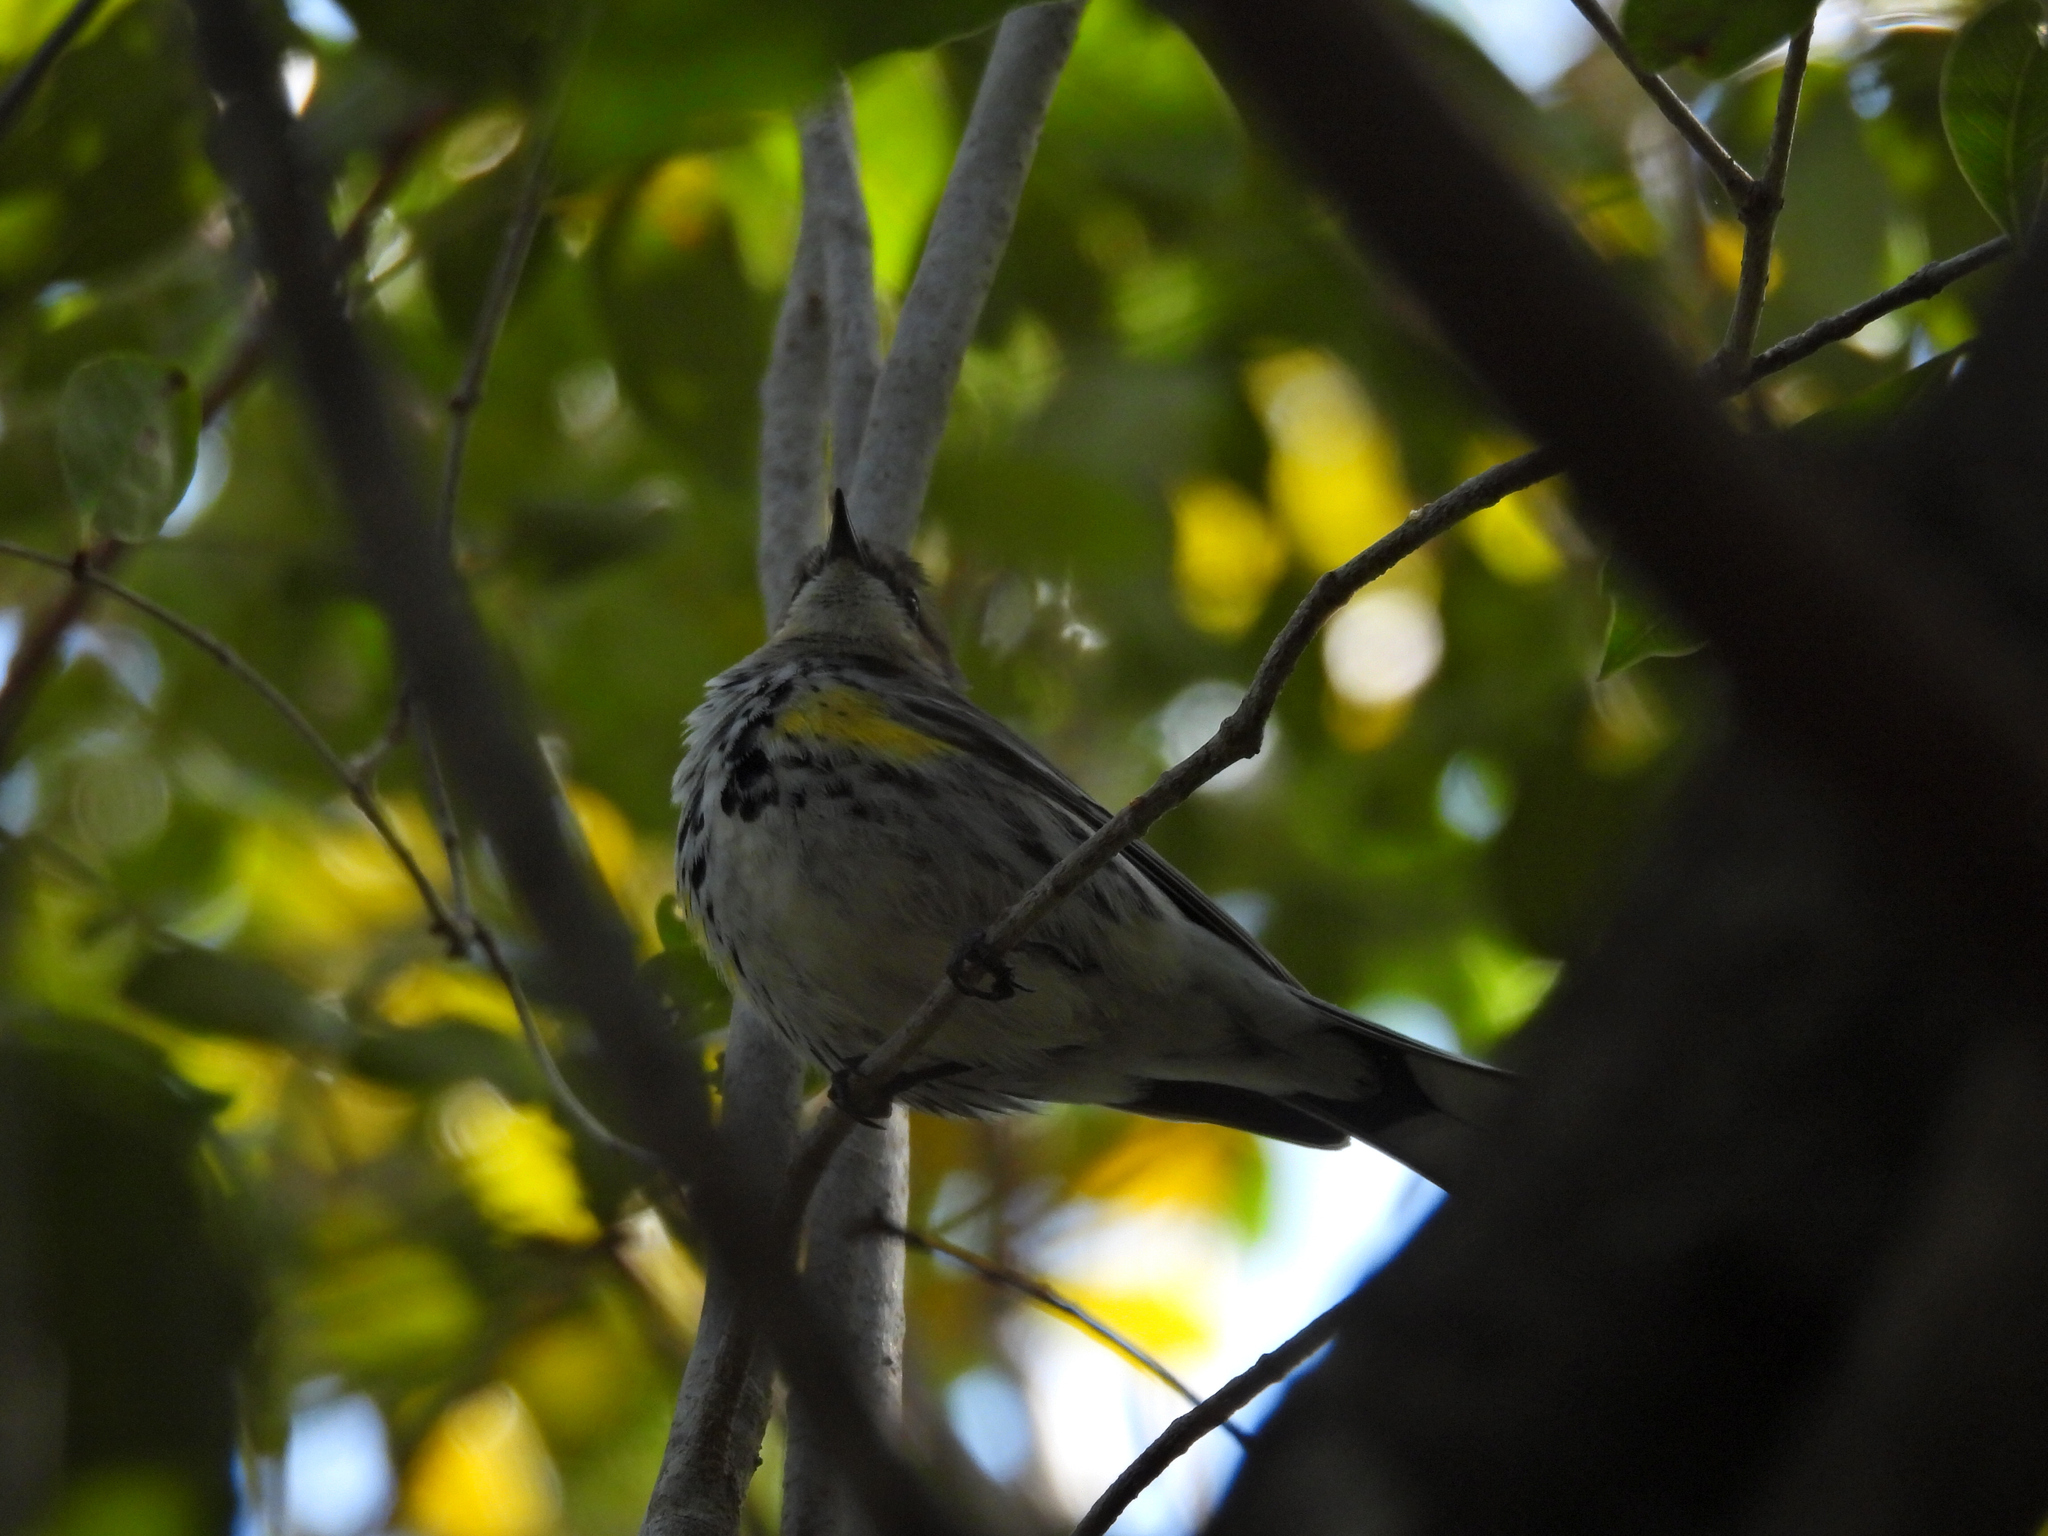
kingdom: Animalia
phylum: Chordata
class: Aves
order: Passeriformes
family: Parulidae
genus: Setophaga
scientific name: Setophaga coronata
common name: Myrtle warbler
